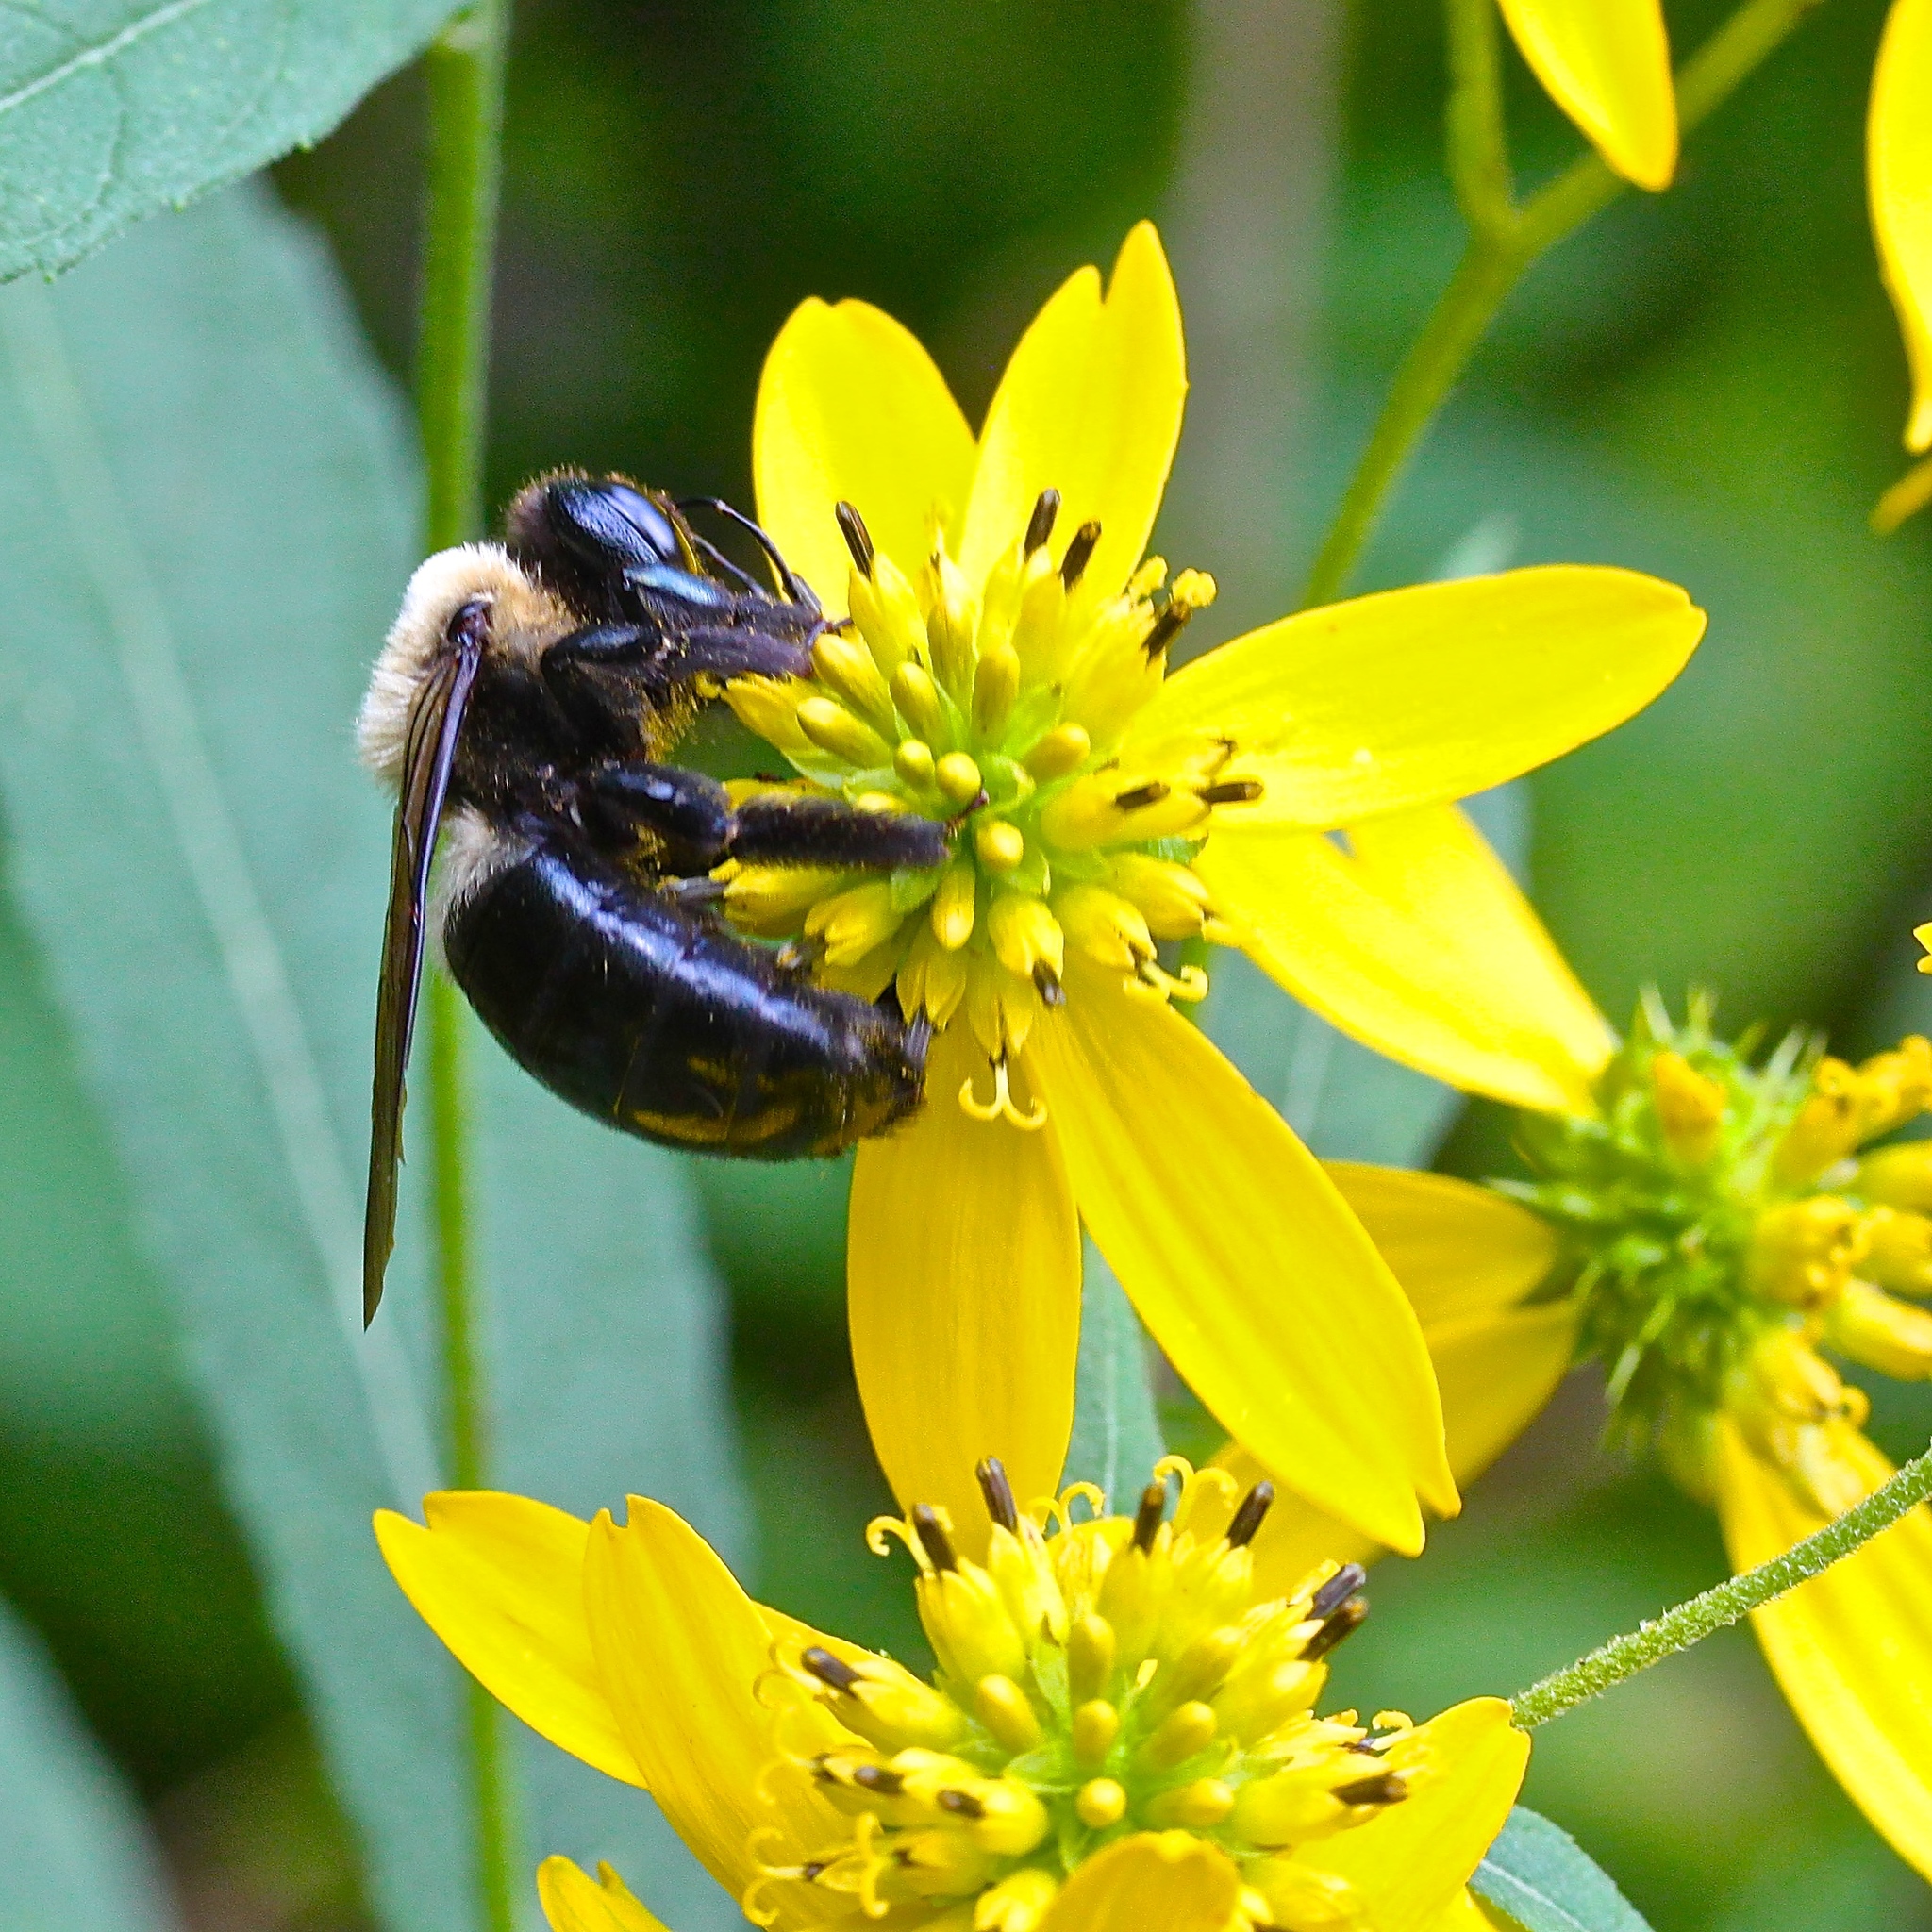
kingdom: Animalia
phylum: Arthropoda
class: Insecta
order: Hymenoptera
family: Apidae
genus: Xylocopa
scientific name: Xylocopa virginica
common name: Carpenter bee
